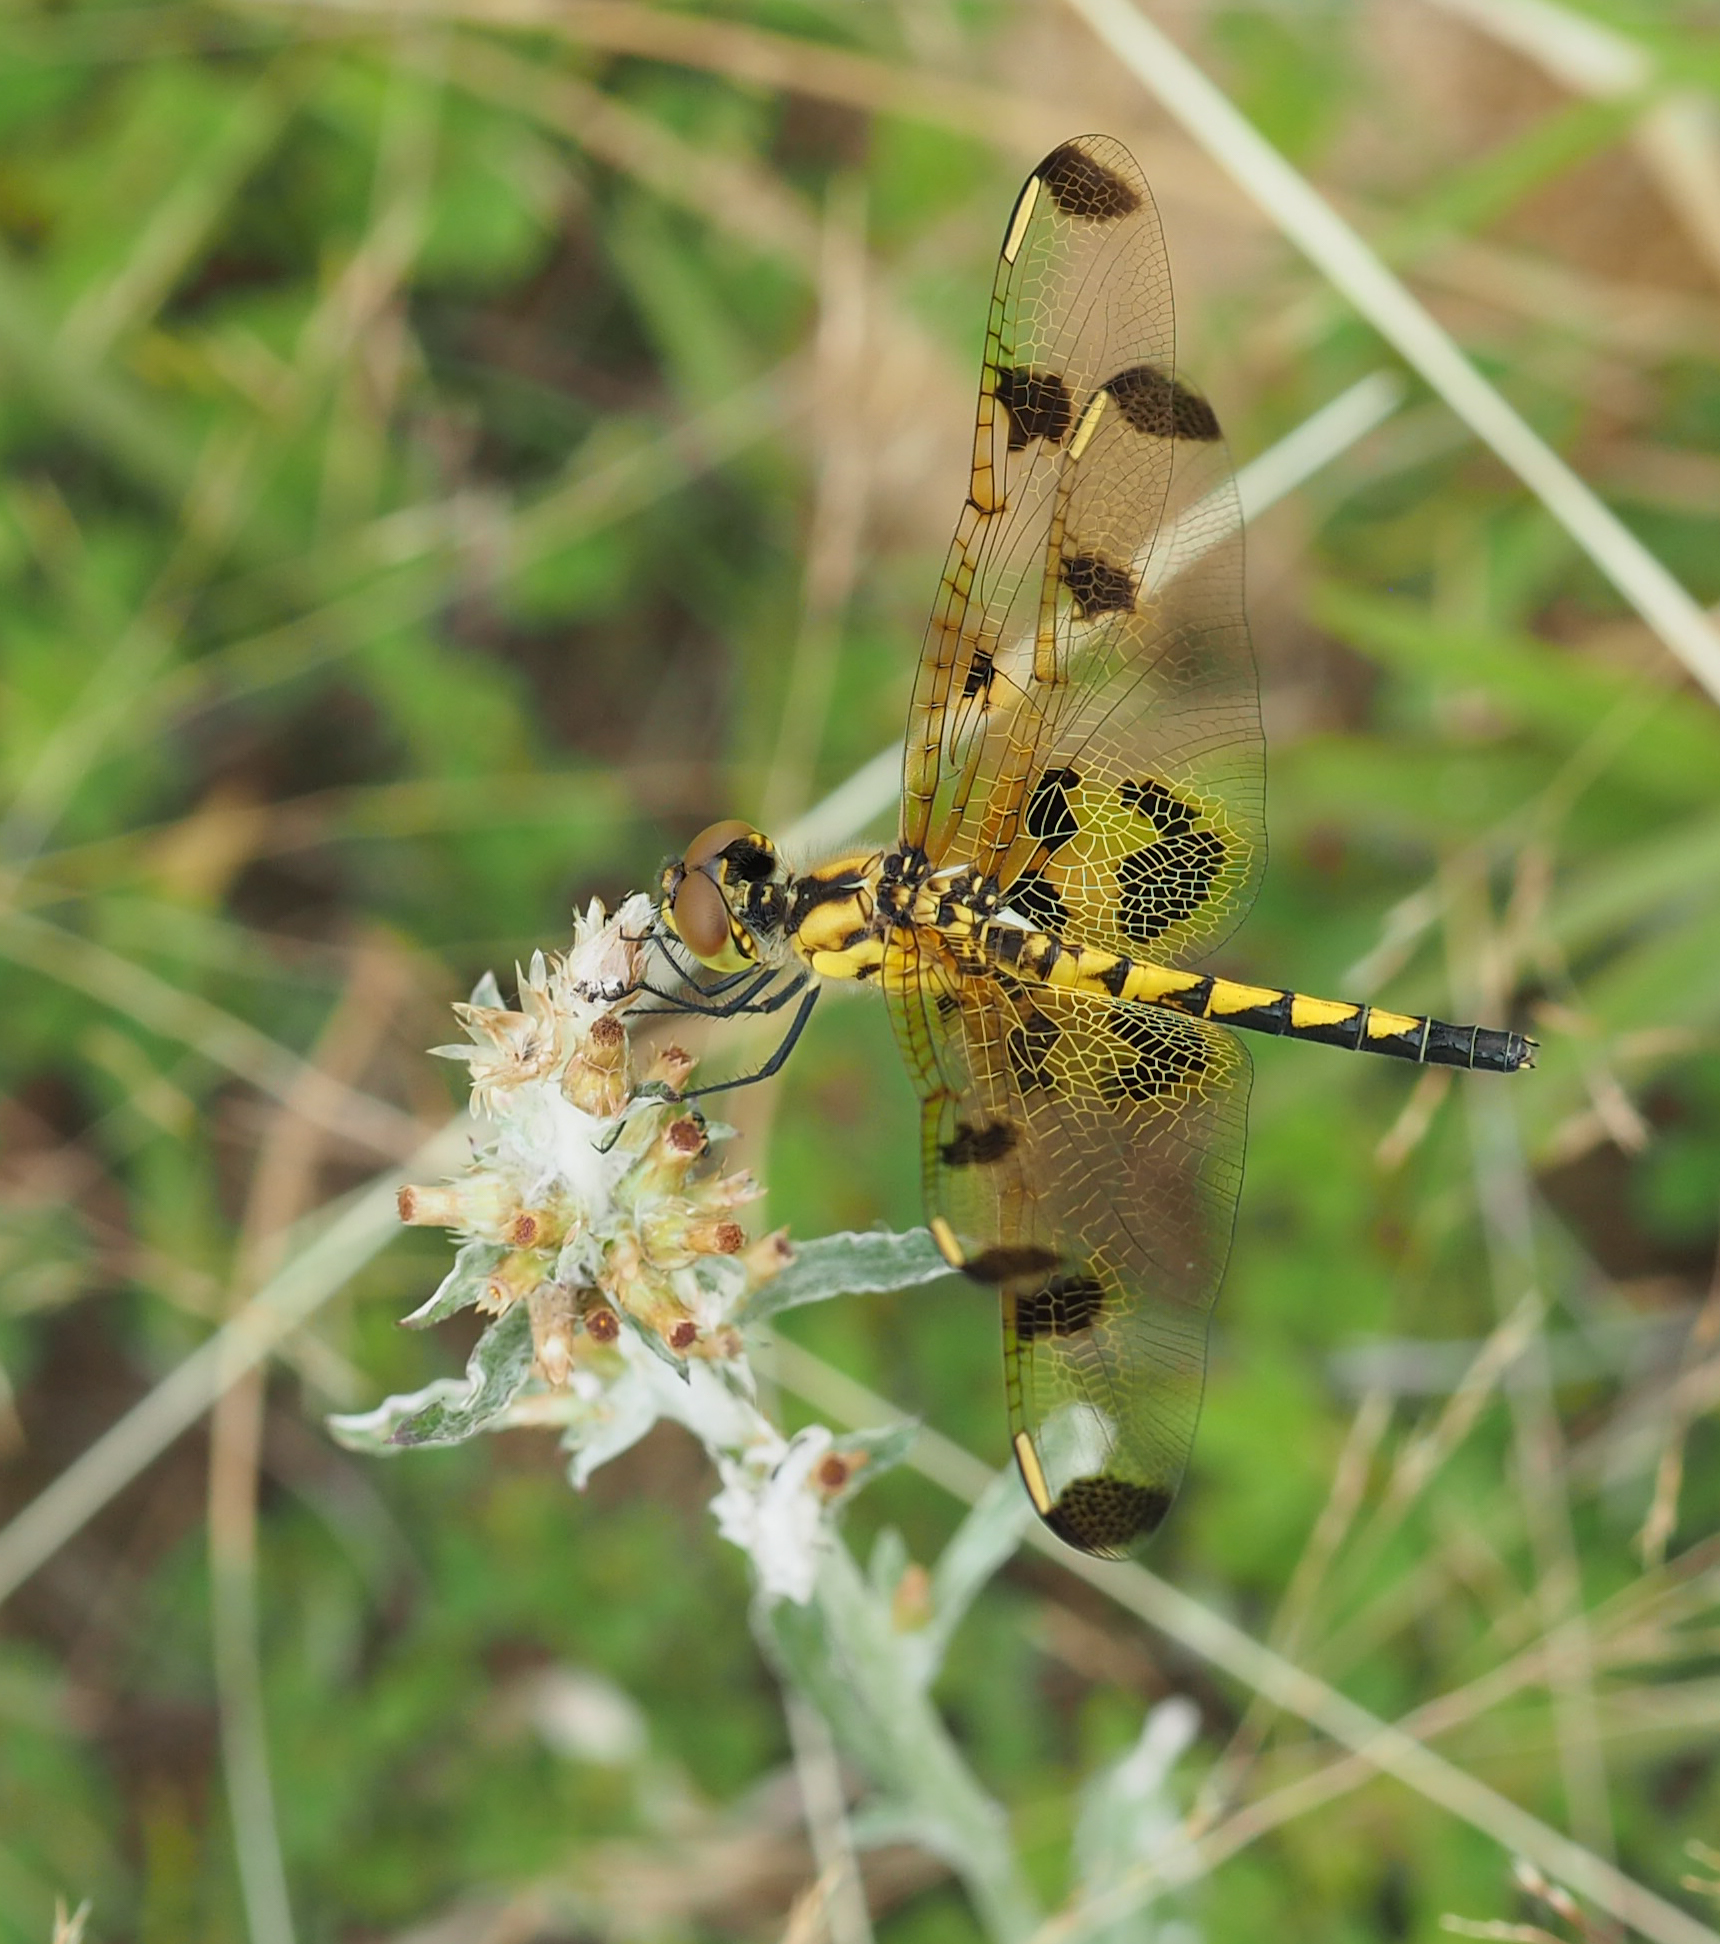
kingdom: Animalia
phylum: Arthropoda
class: Insecta
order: Odonata
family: Libellulidae
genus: Celithemis
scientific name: Celithemis elisa
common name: Calico pennant
